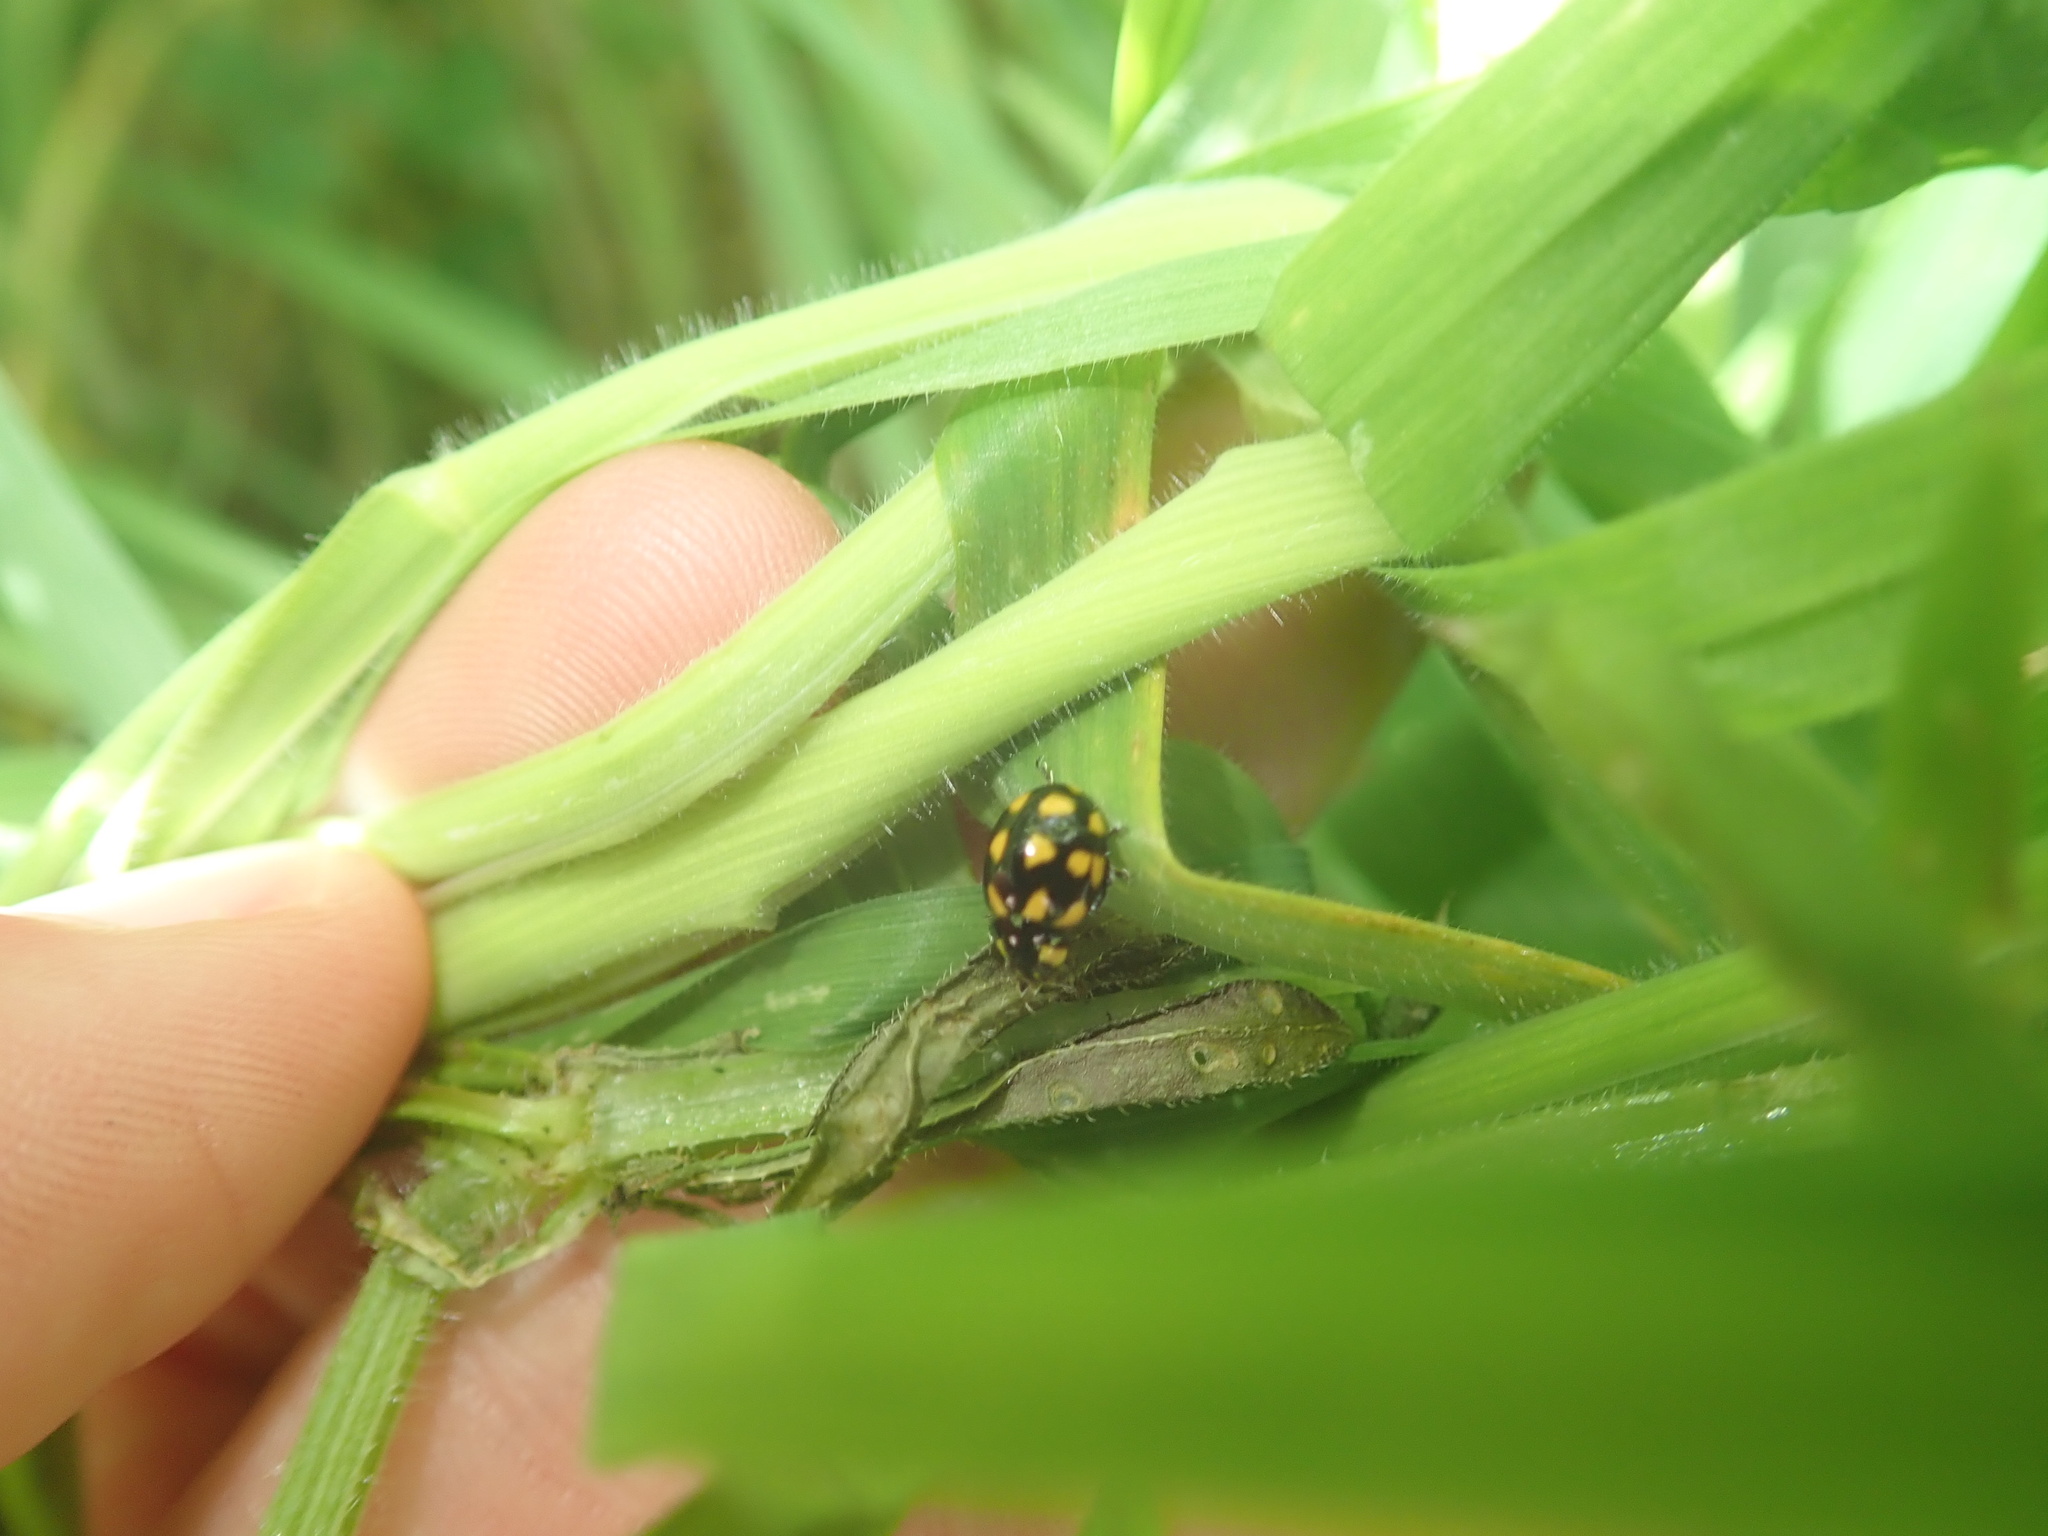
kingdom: Animalia
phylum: Arthropoda
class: Insecta
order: Coleoptera
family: Coccinellidae
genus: Coccinella
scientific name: Coccinella leonina
